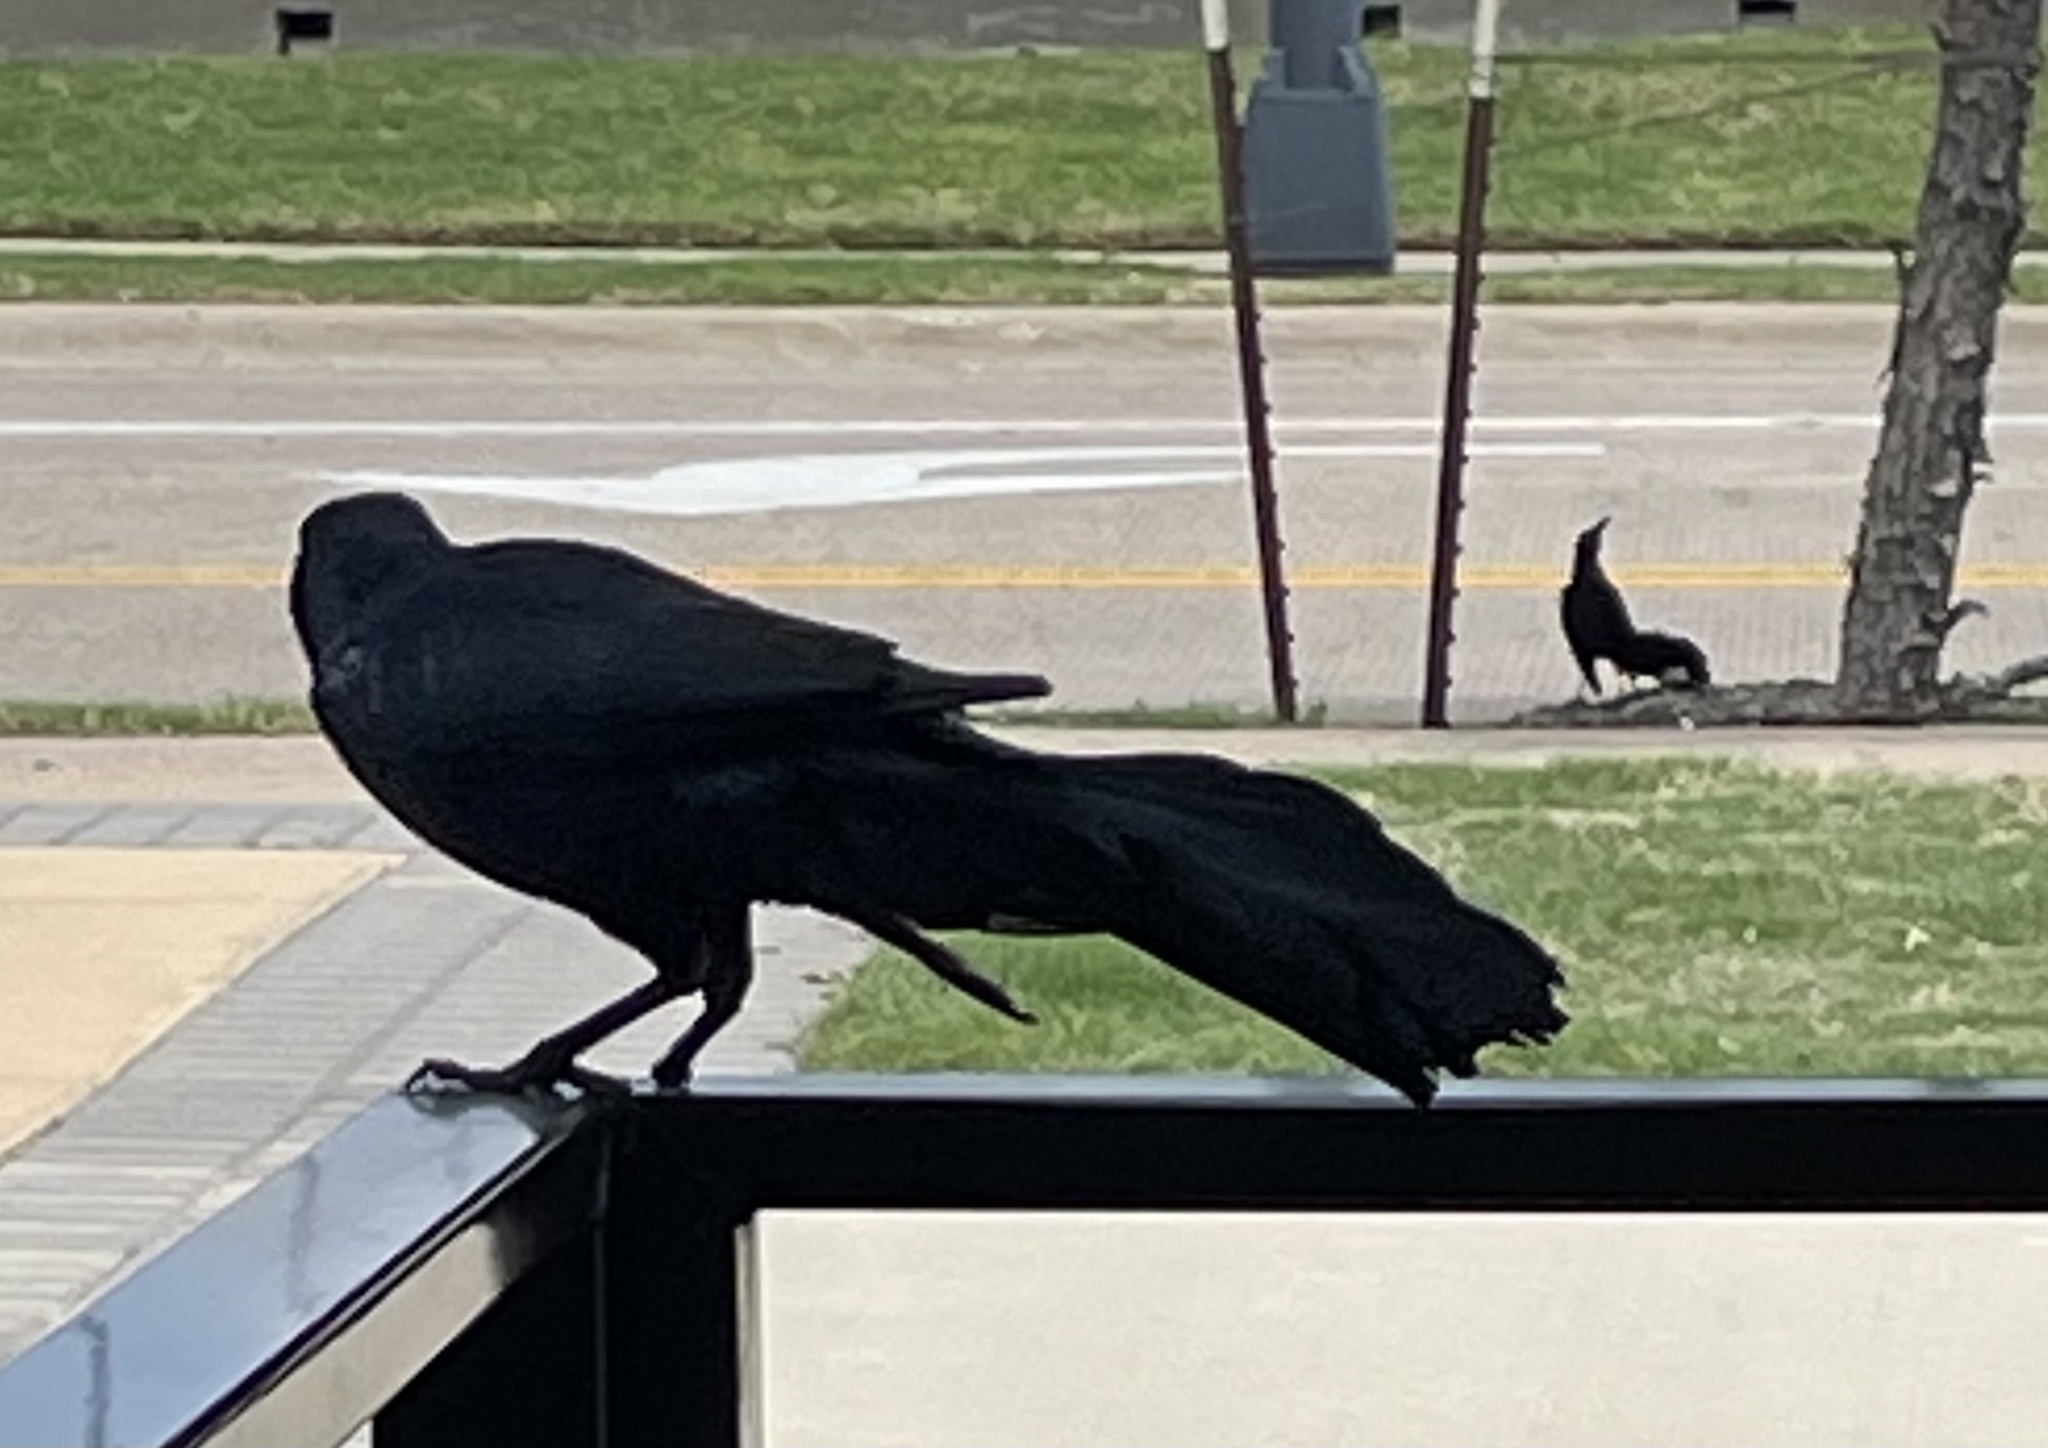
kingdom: Animalia
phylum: Chordata
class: Aves
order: Passeriformes
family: Icteridae
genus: Quiscalus
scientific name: Quiscalus mexicanus
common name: Great-tailed grackle
